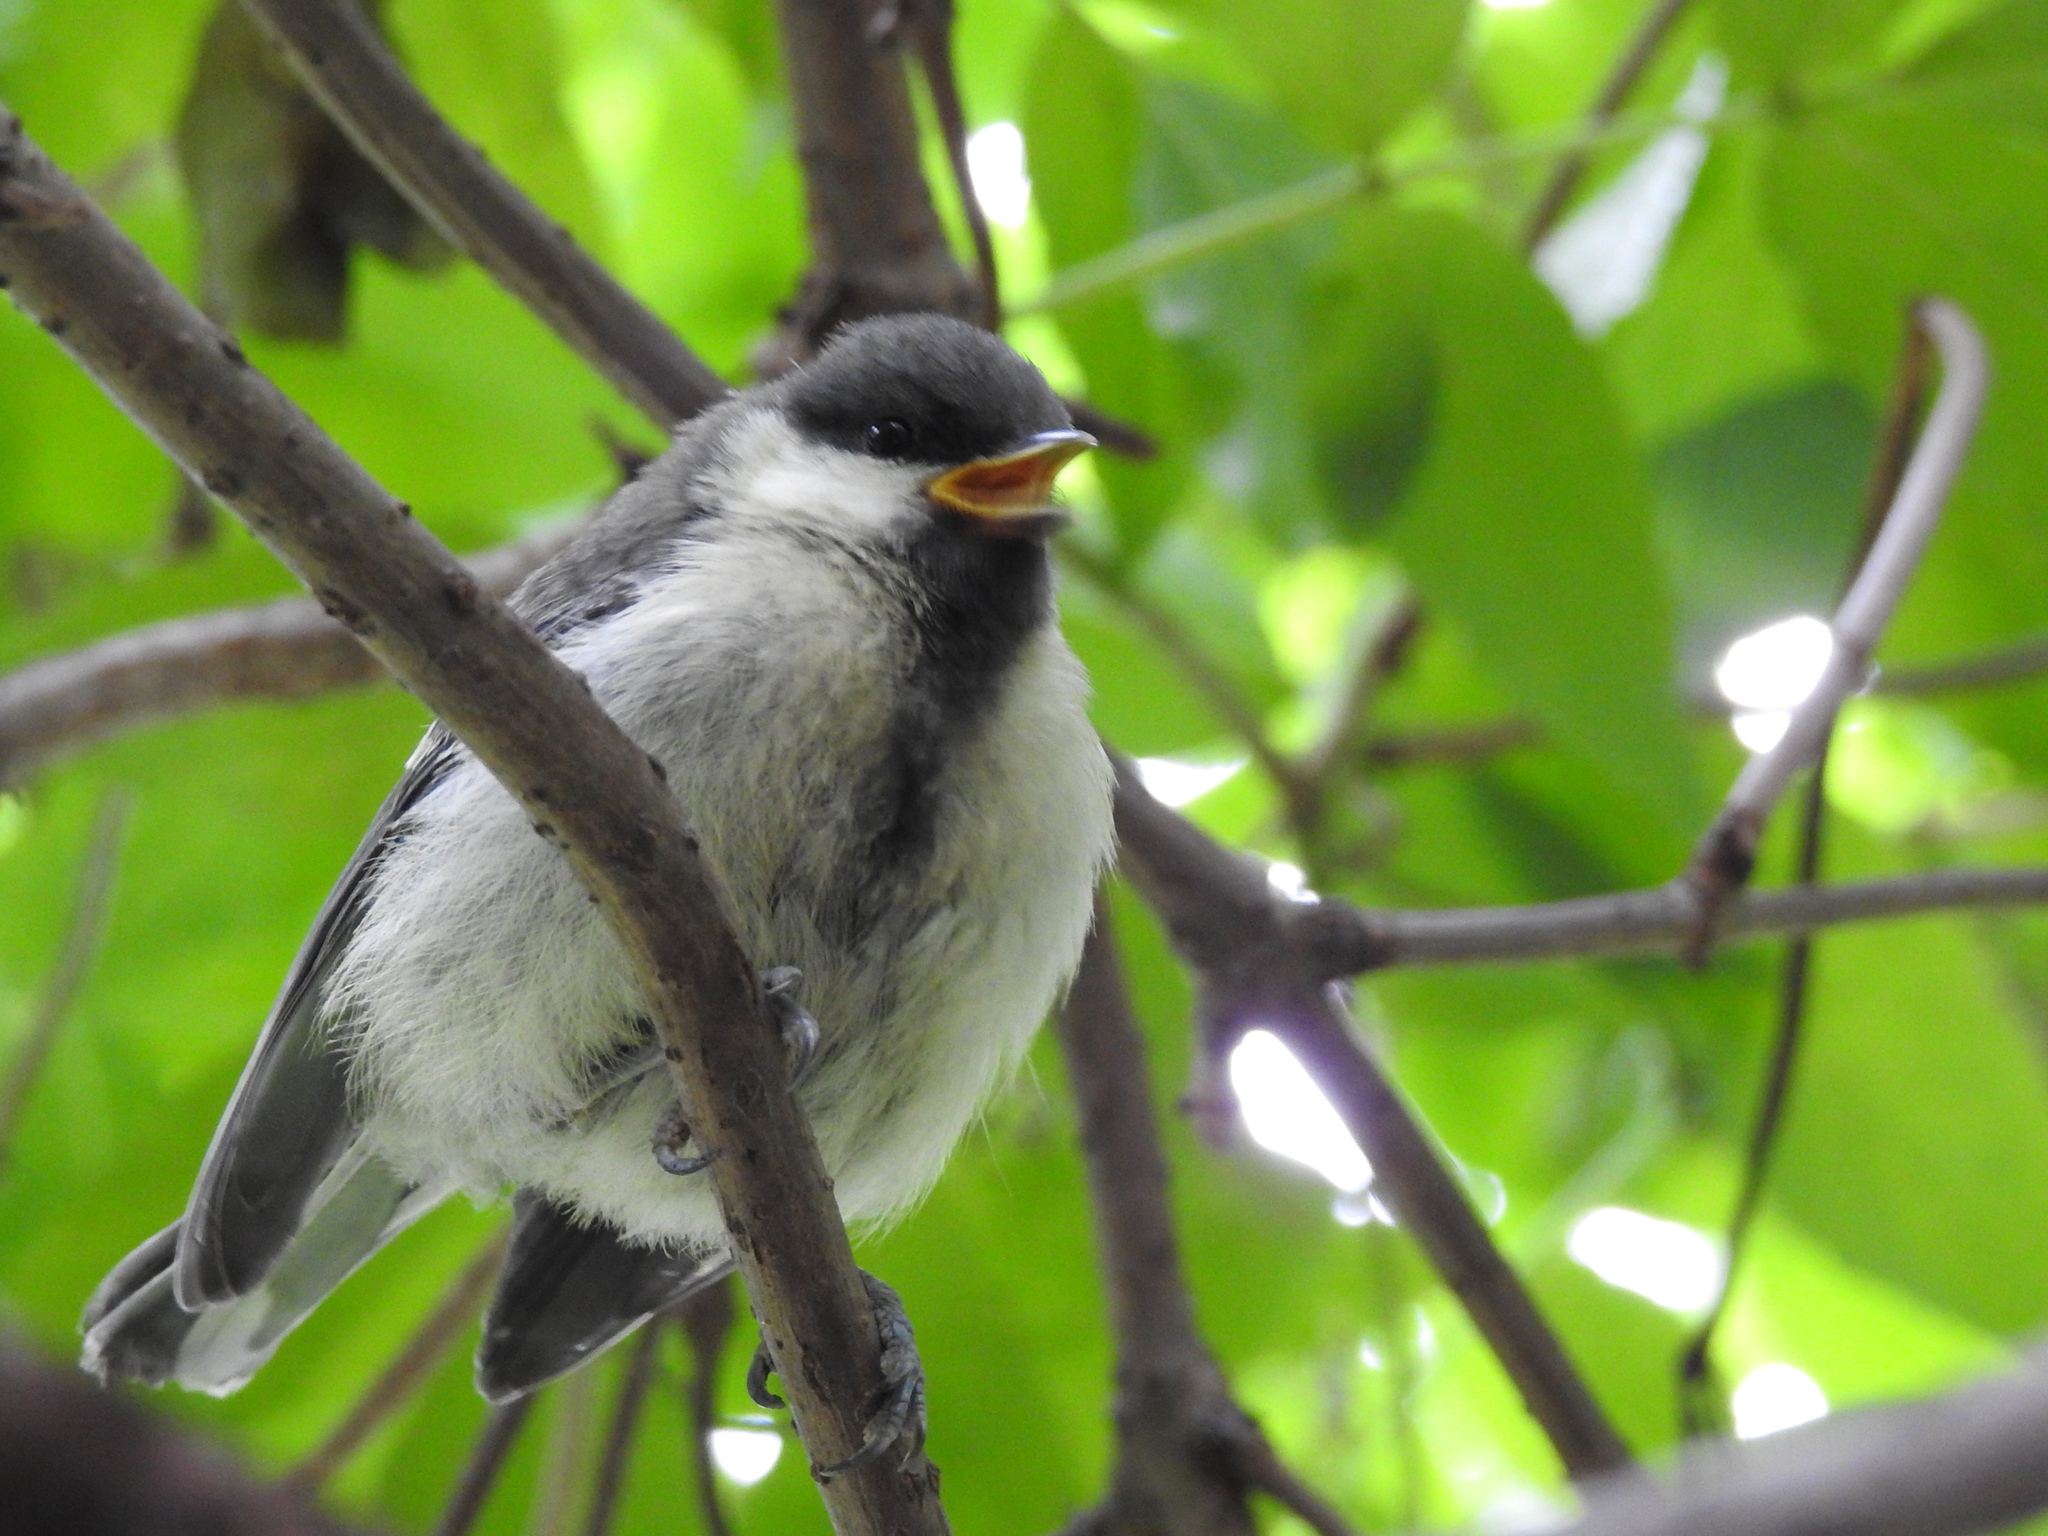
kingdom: Animalia
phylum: Chordata
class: Aves
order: Passeriformes
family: Paridae
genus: Parus
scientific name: Parus major
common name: Great tit
